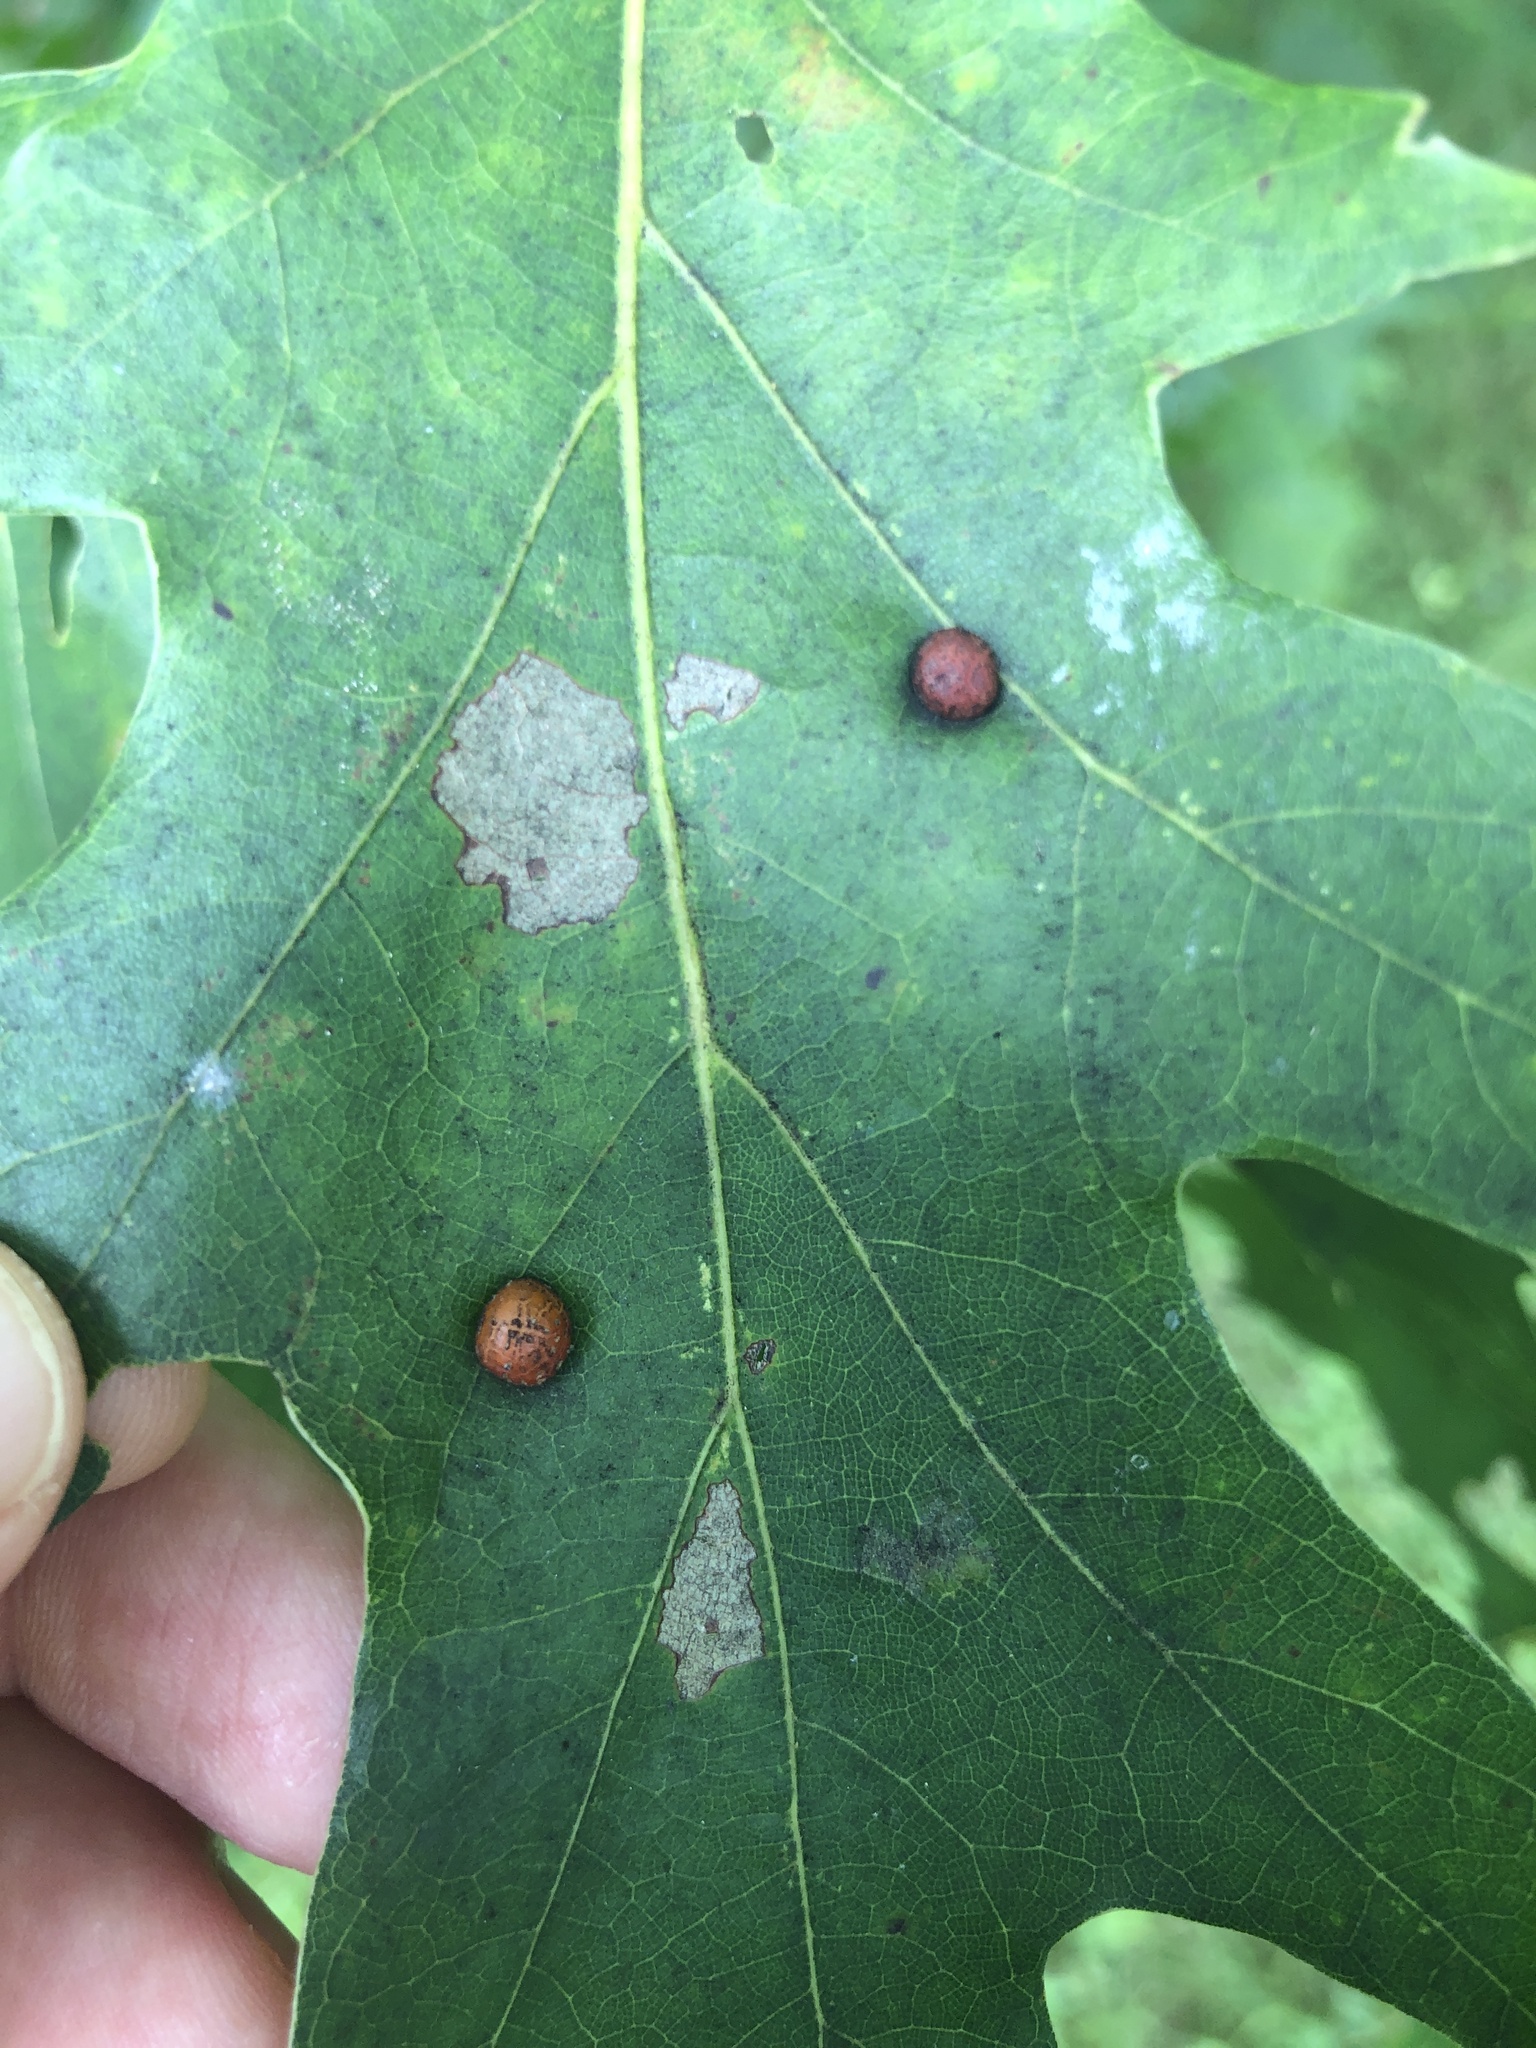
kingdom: Animalia
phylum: Arthropoda
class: Insecta
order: Diptera
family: Cecidomyiidae
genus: Polystepha
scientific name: Polystepha pilulae
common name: Oak leaf gall midge
